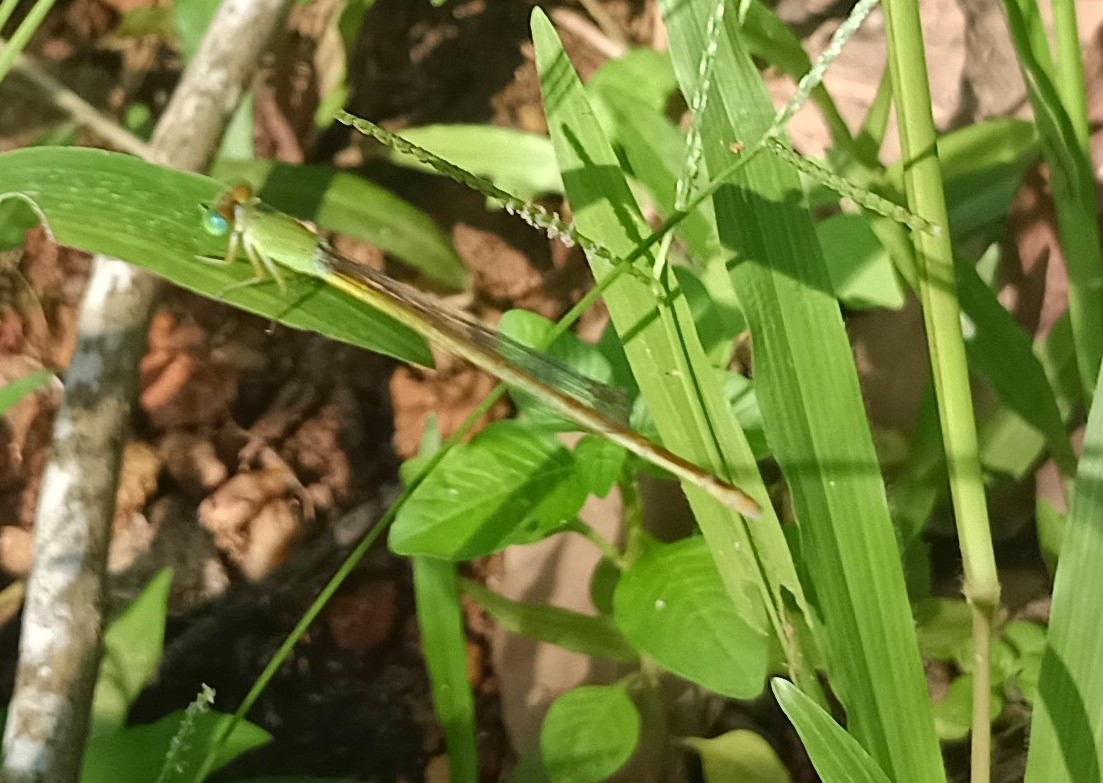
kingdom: Animalia
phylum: Arthropoda
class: Insecta
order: Odonata
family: Coenagrionidae
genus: Ceriagrion
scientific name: Ceriagrion coromandelianum
